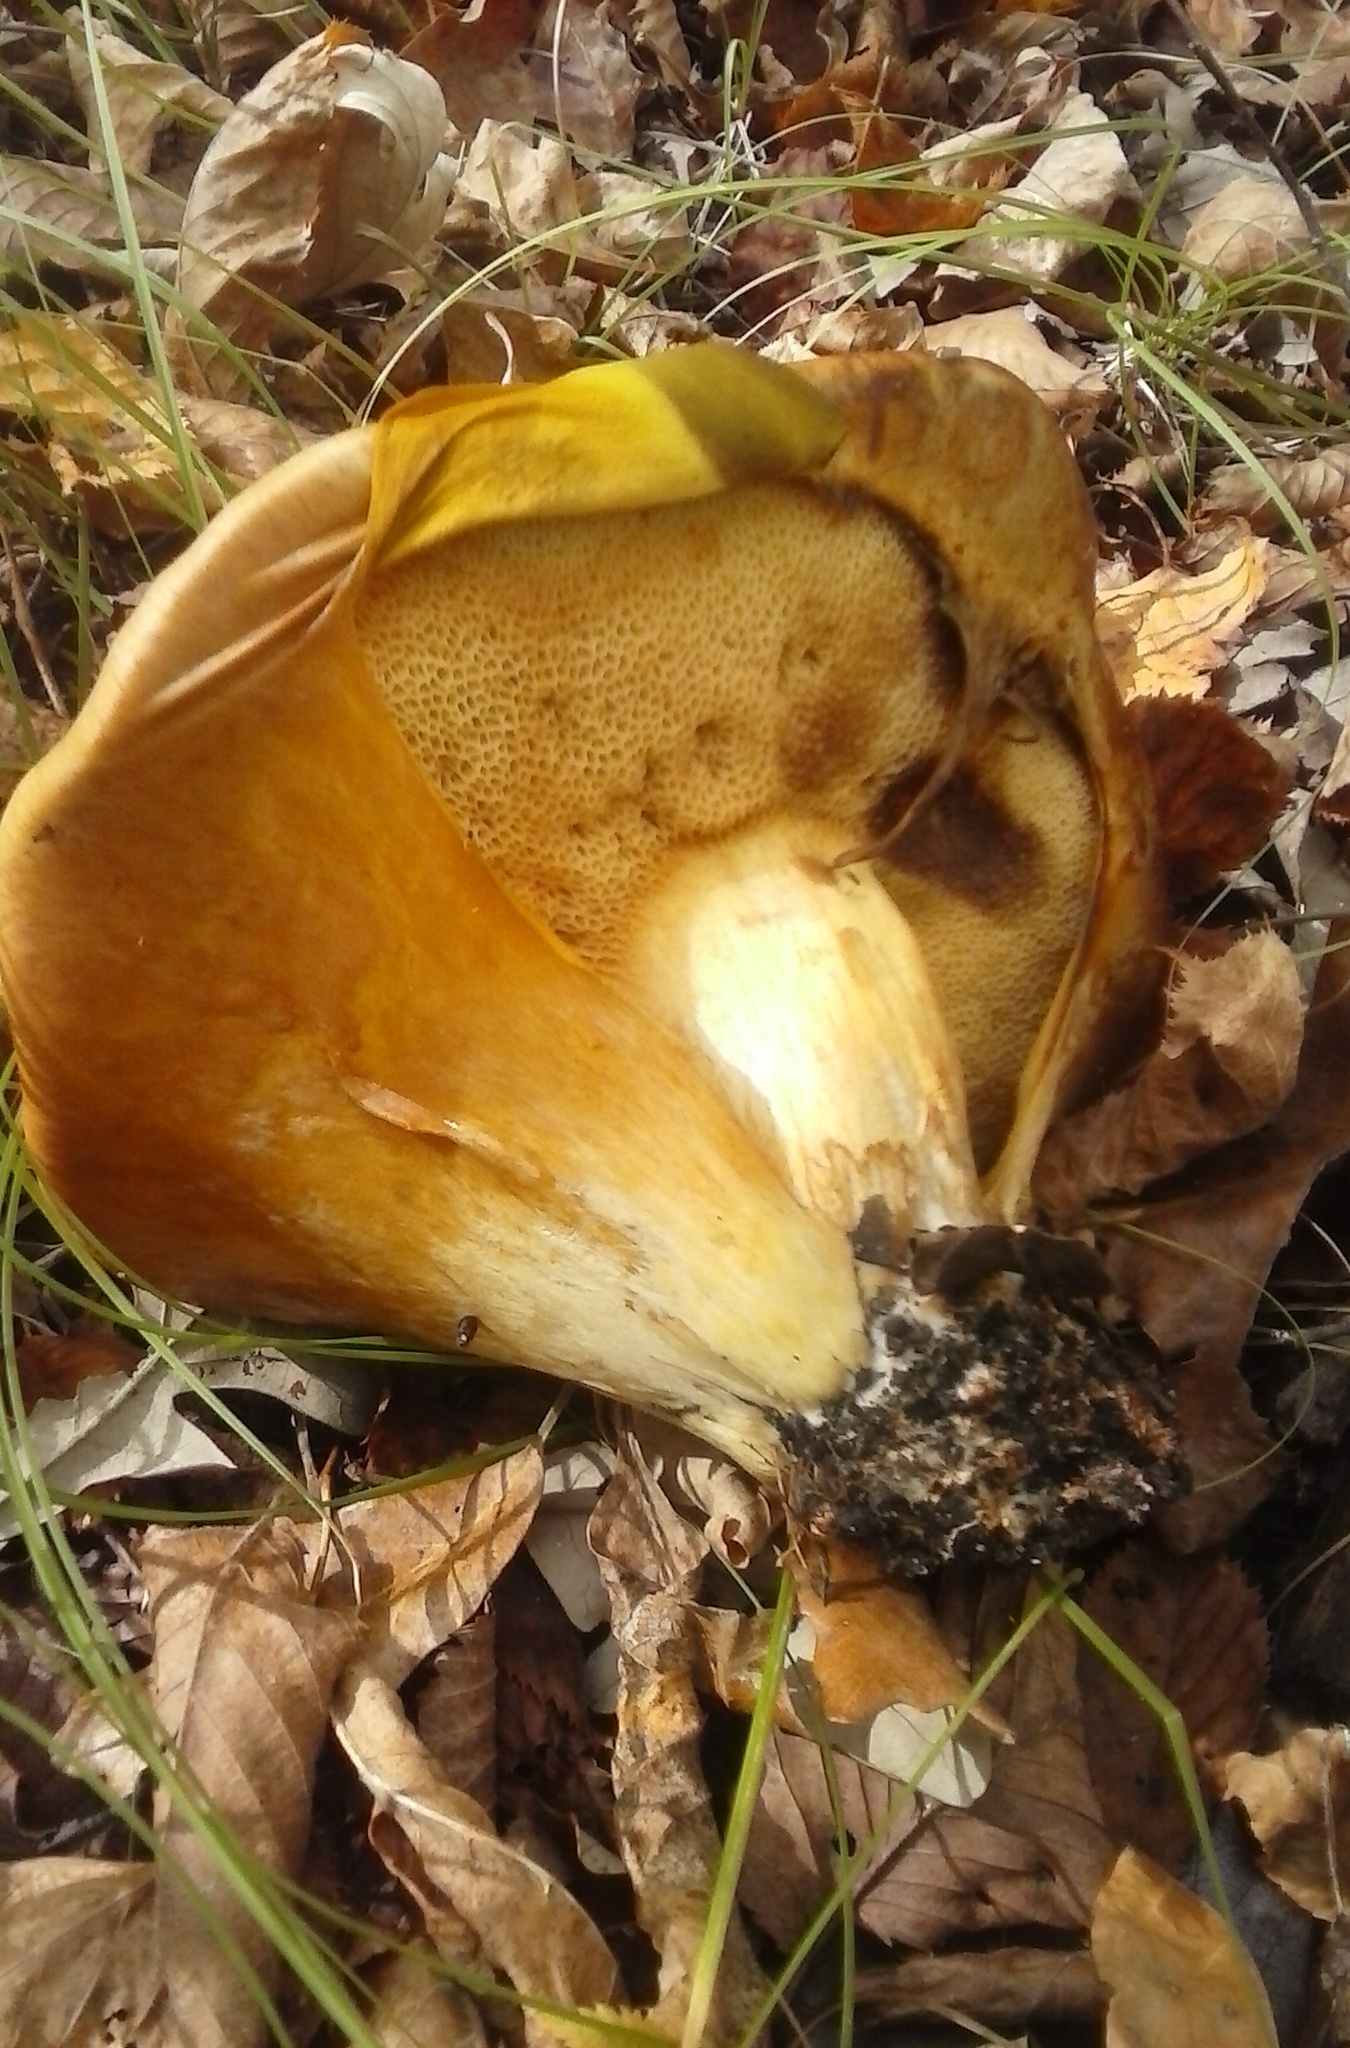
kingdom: Fungi
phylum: Basidiomycota
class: Agaricomycetes
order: Boletales
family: Paxillaceae
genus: Paragyrodon
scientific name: Paragyrodon sphaerosporus
